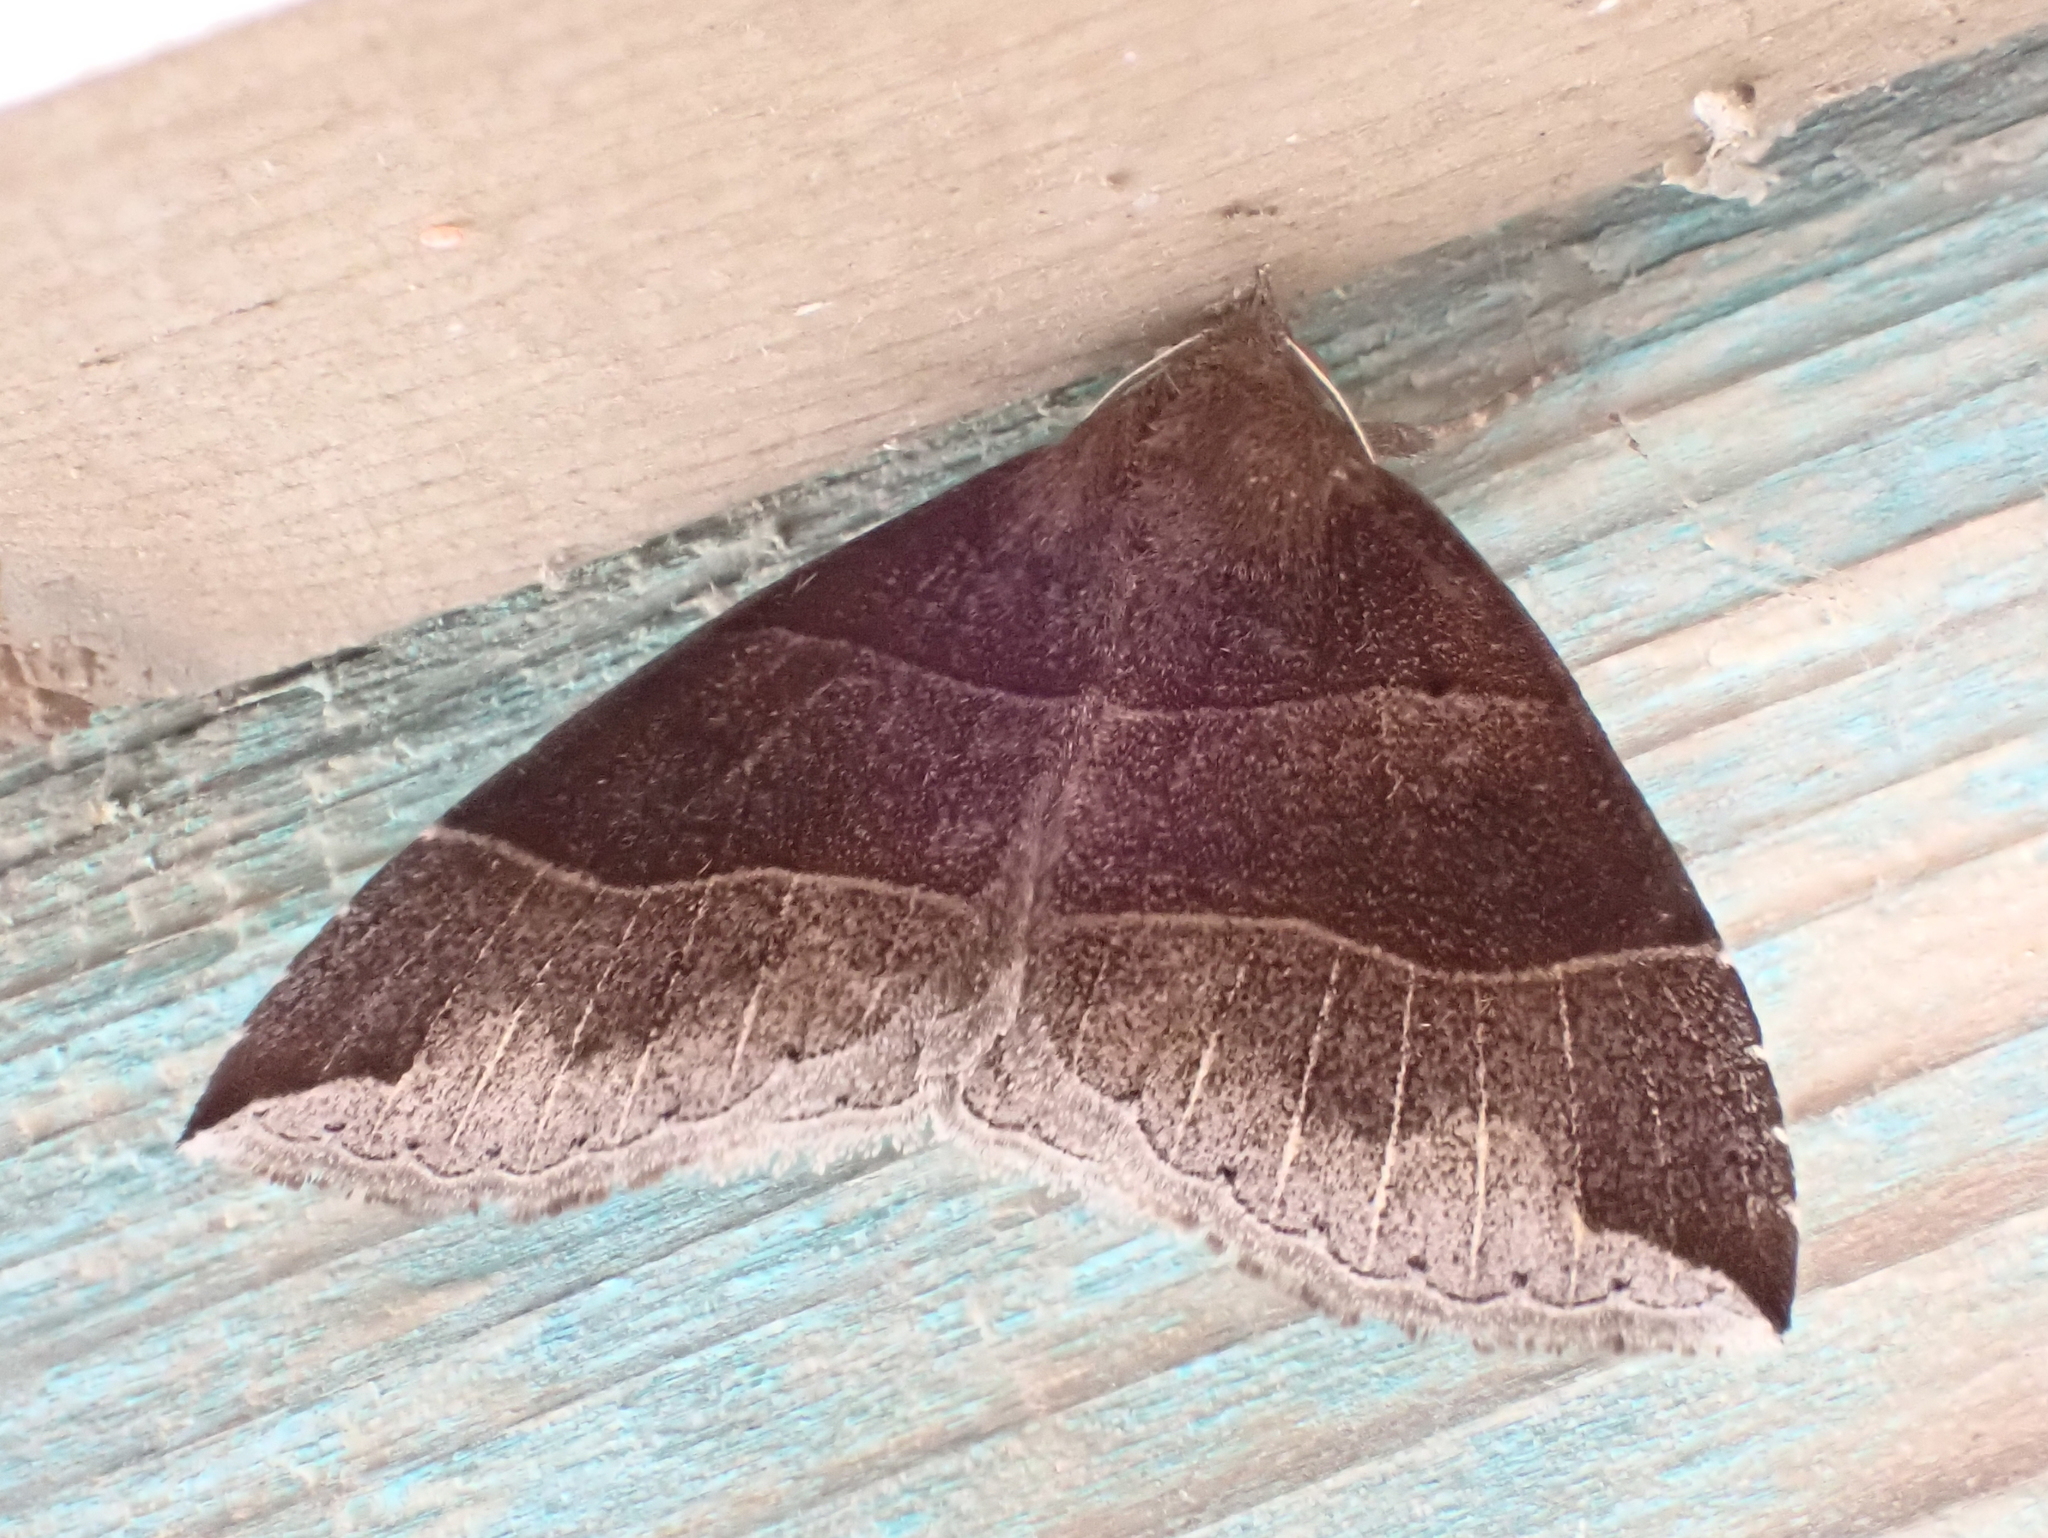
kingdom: Animalia
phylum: Arthropoda
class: Insecta
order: Lepidoptera
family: Erebidae
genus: Parallelia
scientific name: Parallelia bistriaris
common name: Maple looper moth
